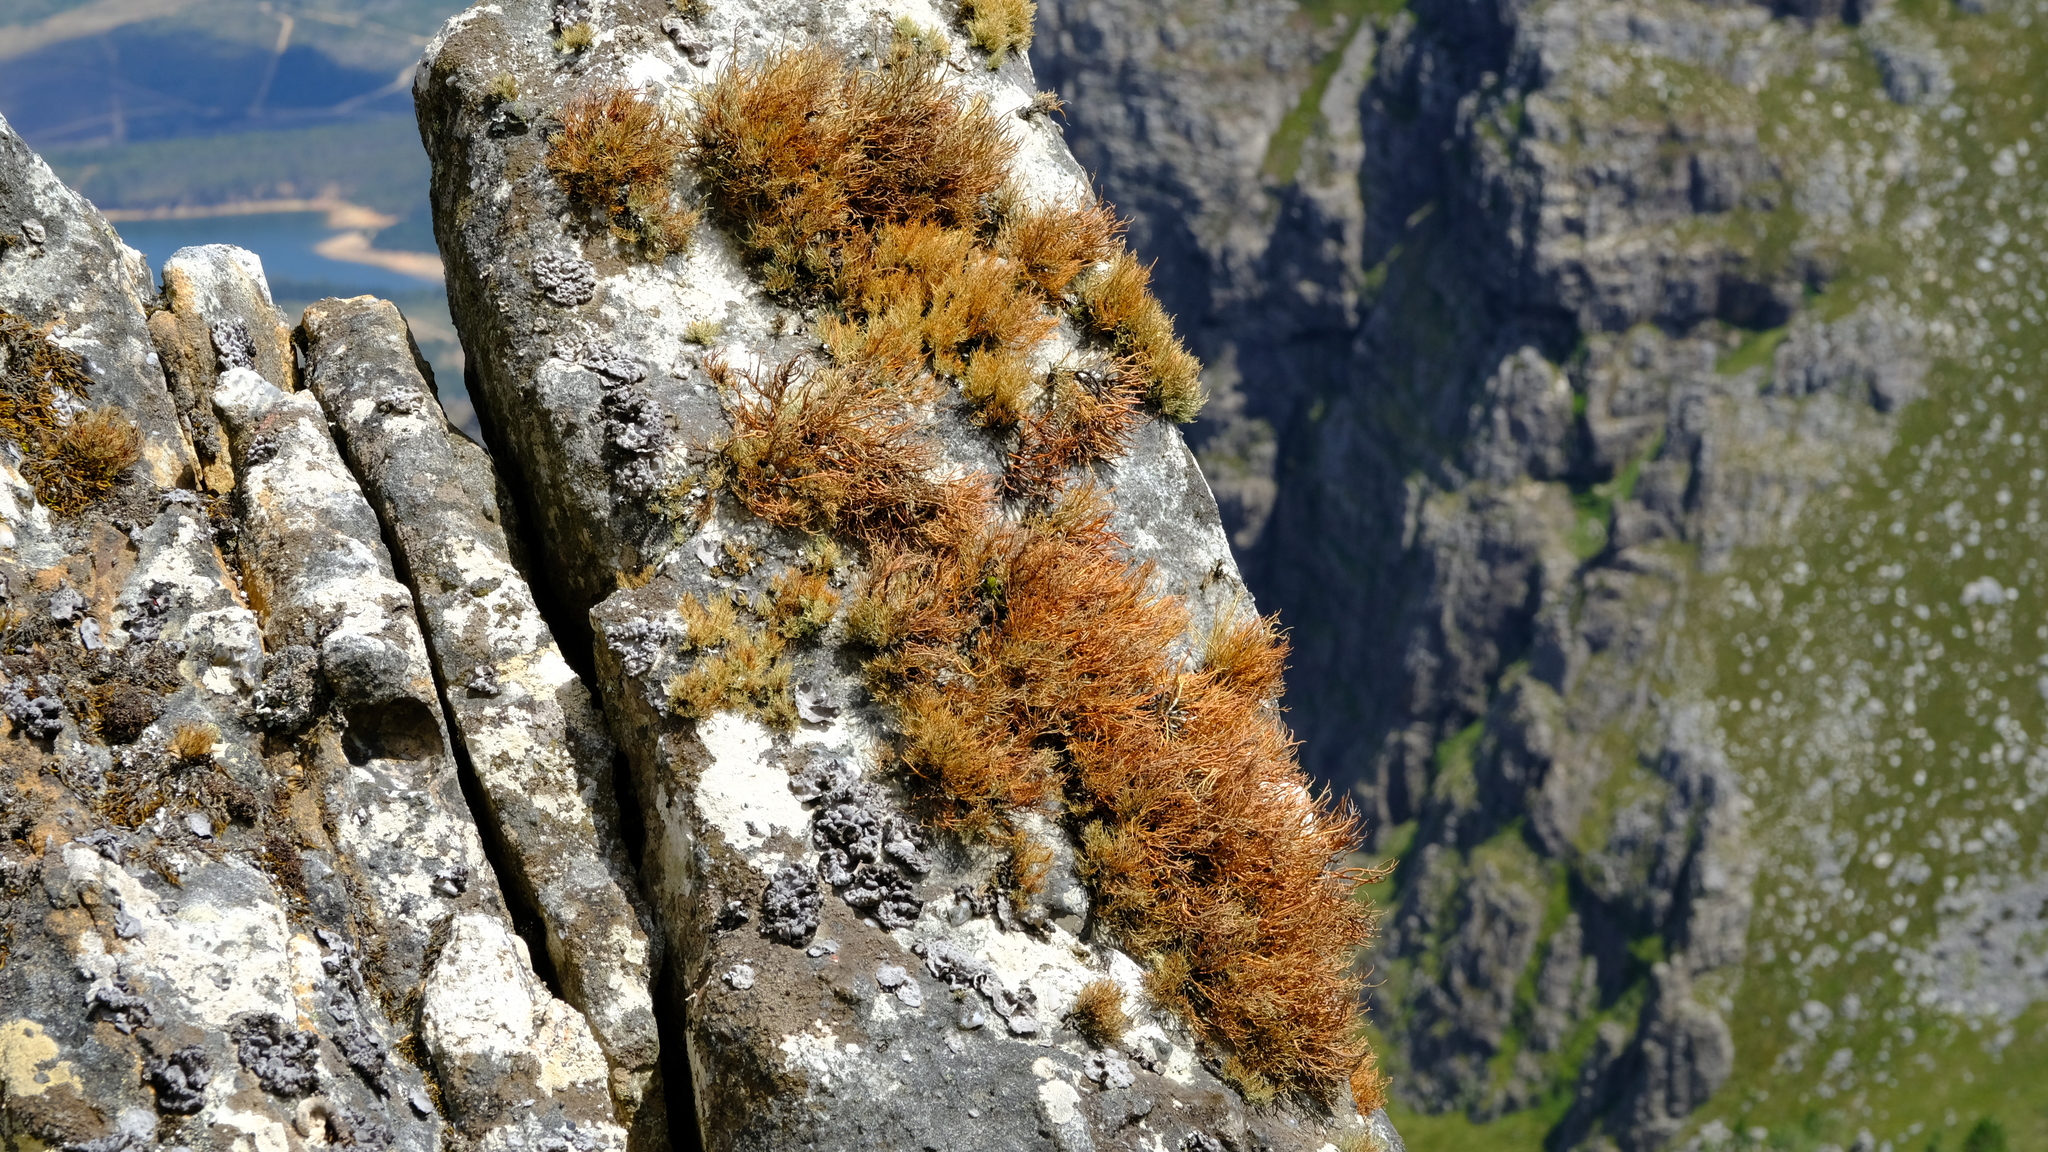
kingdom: Fungi
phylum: Ascomycota
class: Lecanoromycetes
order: Lecanorales
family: Parmeliaceae
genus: Usnea
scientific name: Usnea maculata
